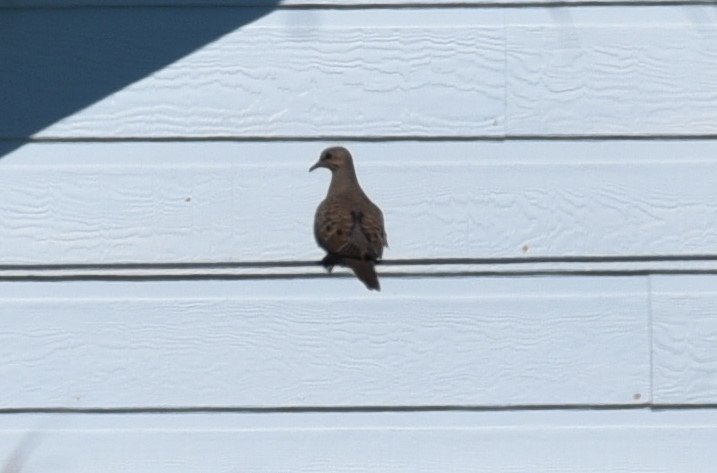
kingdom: Animalia
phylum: Chordata
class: Aves
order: Columbiformes
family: Columbidae
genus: Zenaida
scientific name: Zenaida macroura
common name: Mourning dove
